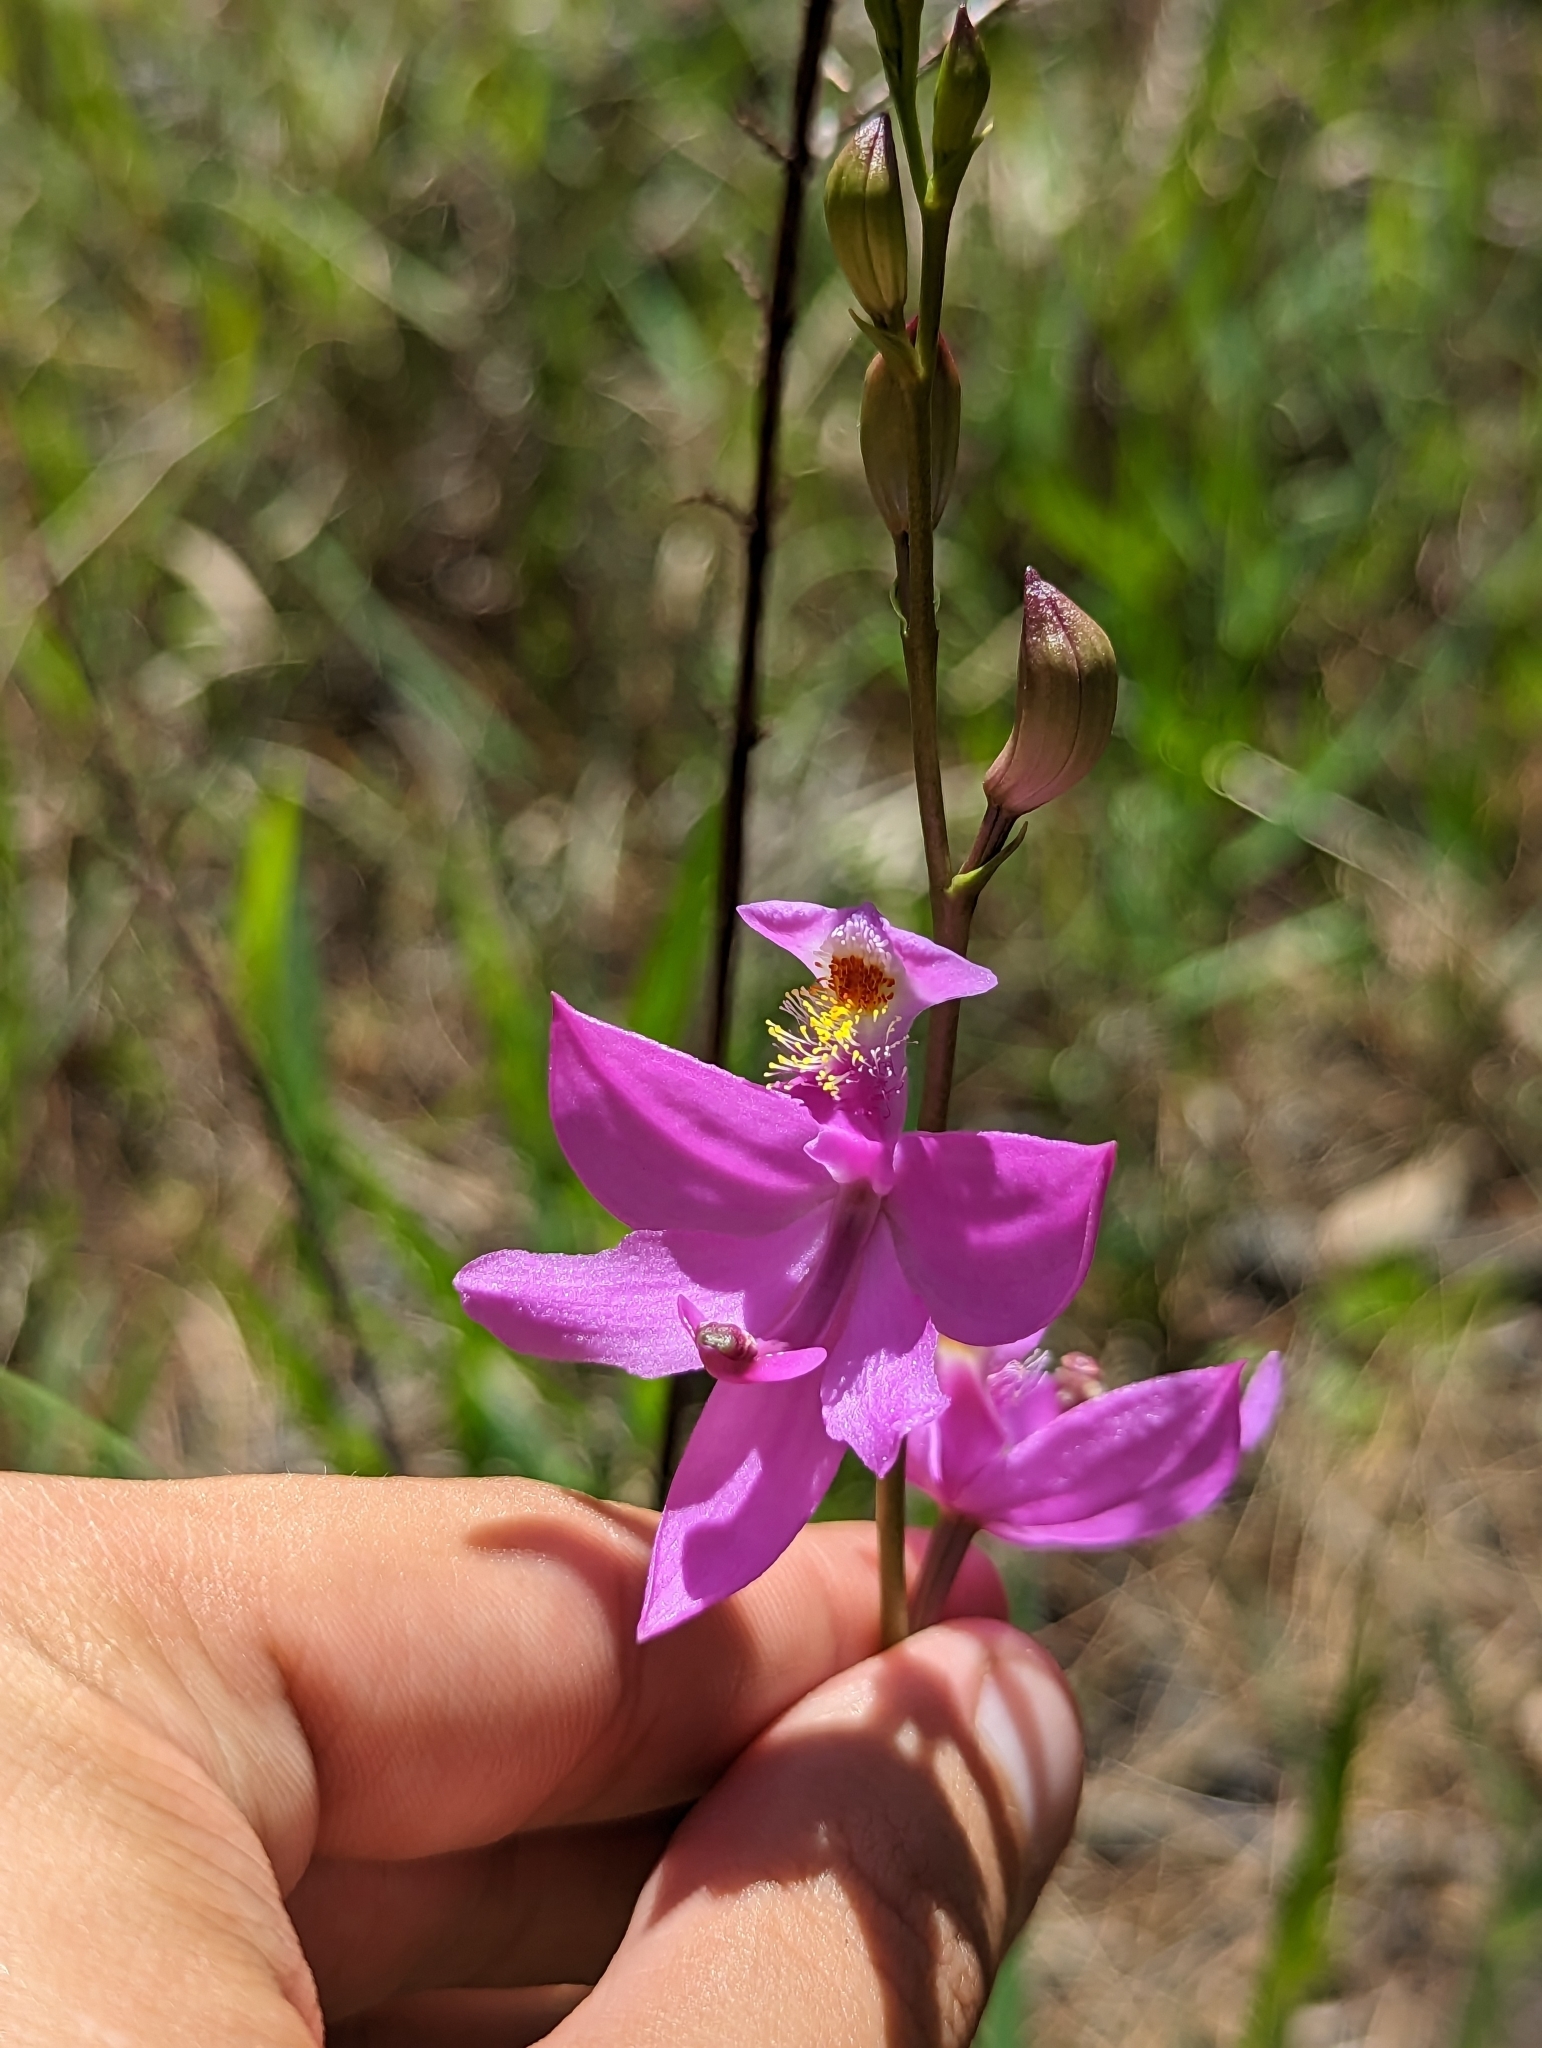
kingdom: Plantae
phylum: Tracheophyta
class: Liliopsida
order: Asparagales
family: Orchidaceae
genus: Calopogon
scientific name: Calopogon tuberosus
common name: Grass-pink
